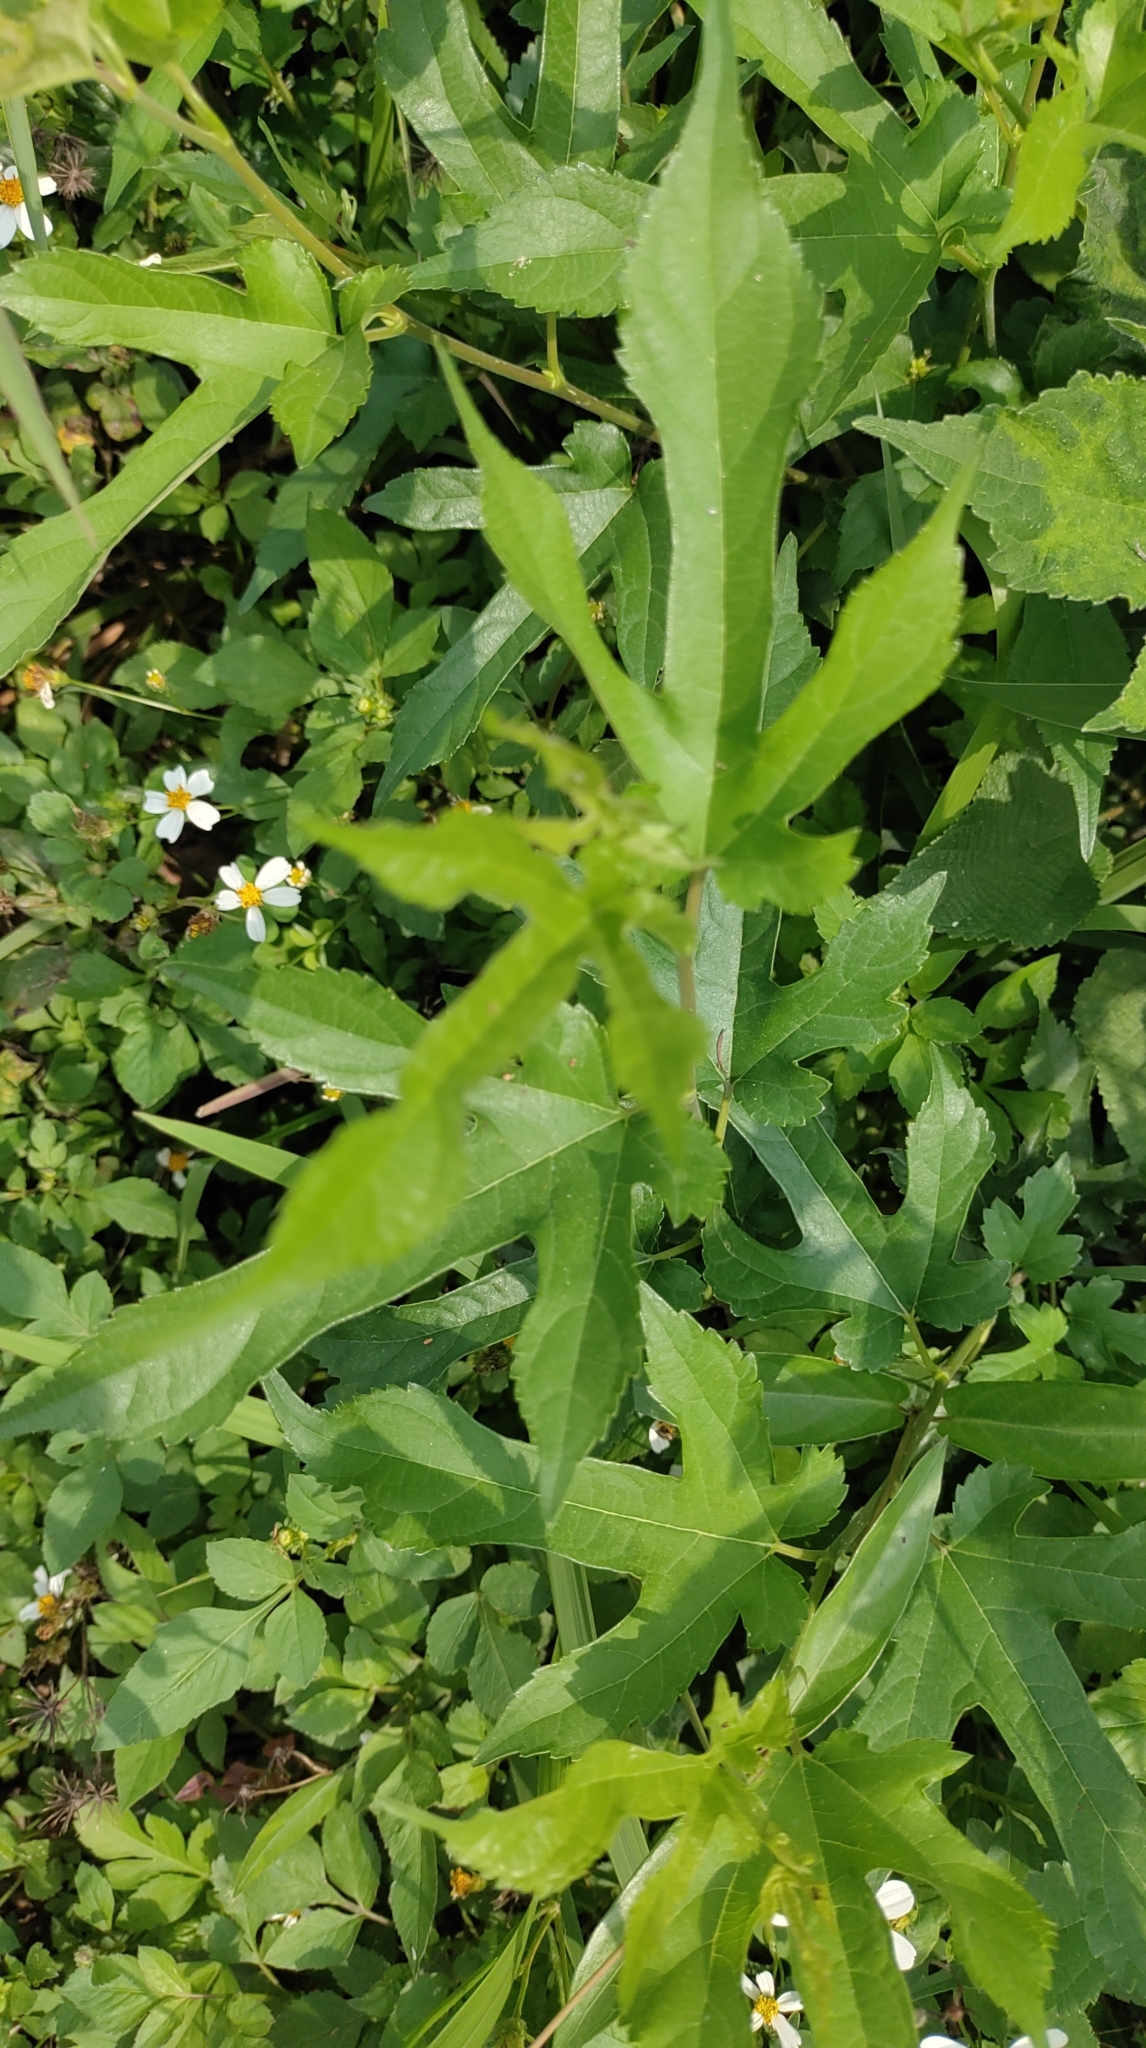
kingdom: Plantae
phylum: Tracheophyta
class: Magnoliopsida
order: Rosales
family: Moraceae
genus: Morus
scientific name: Morus indica
